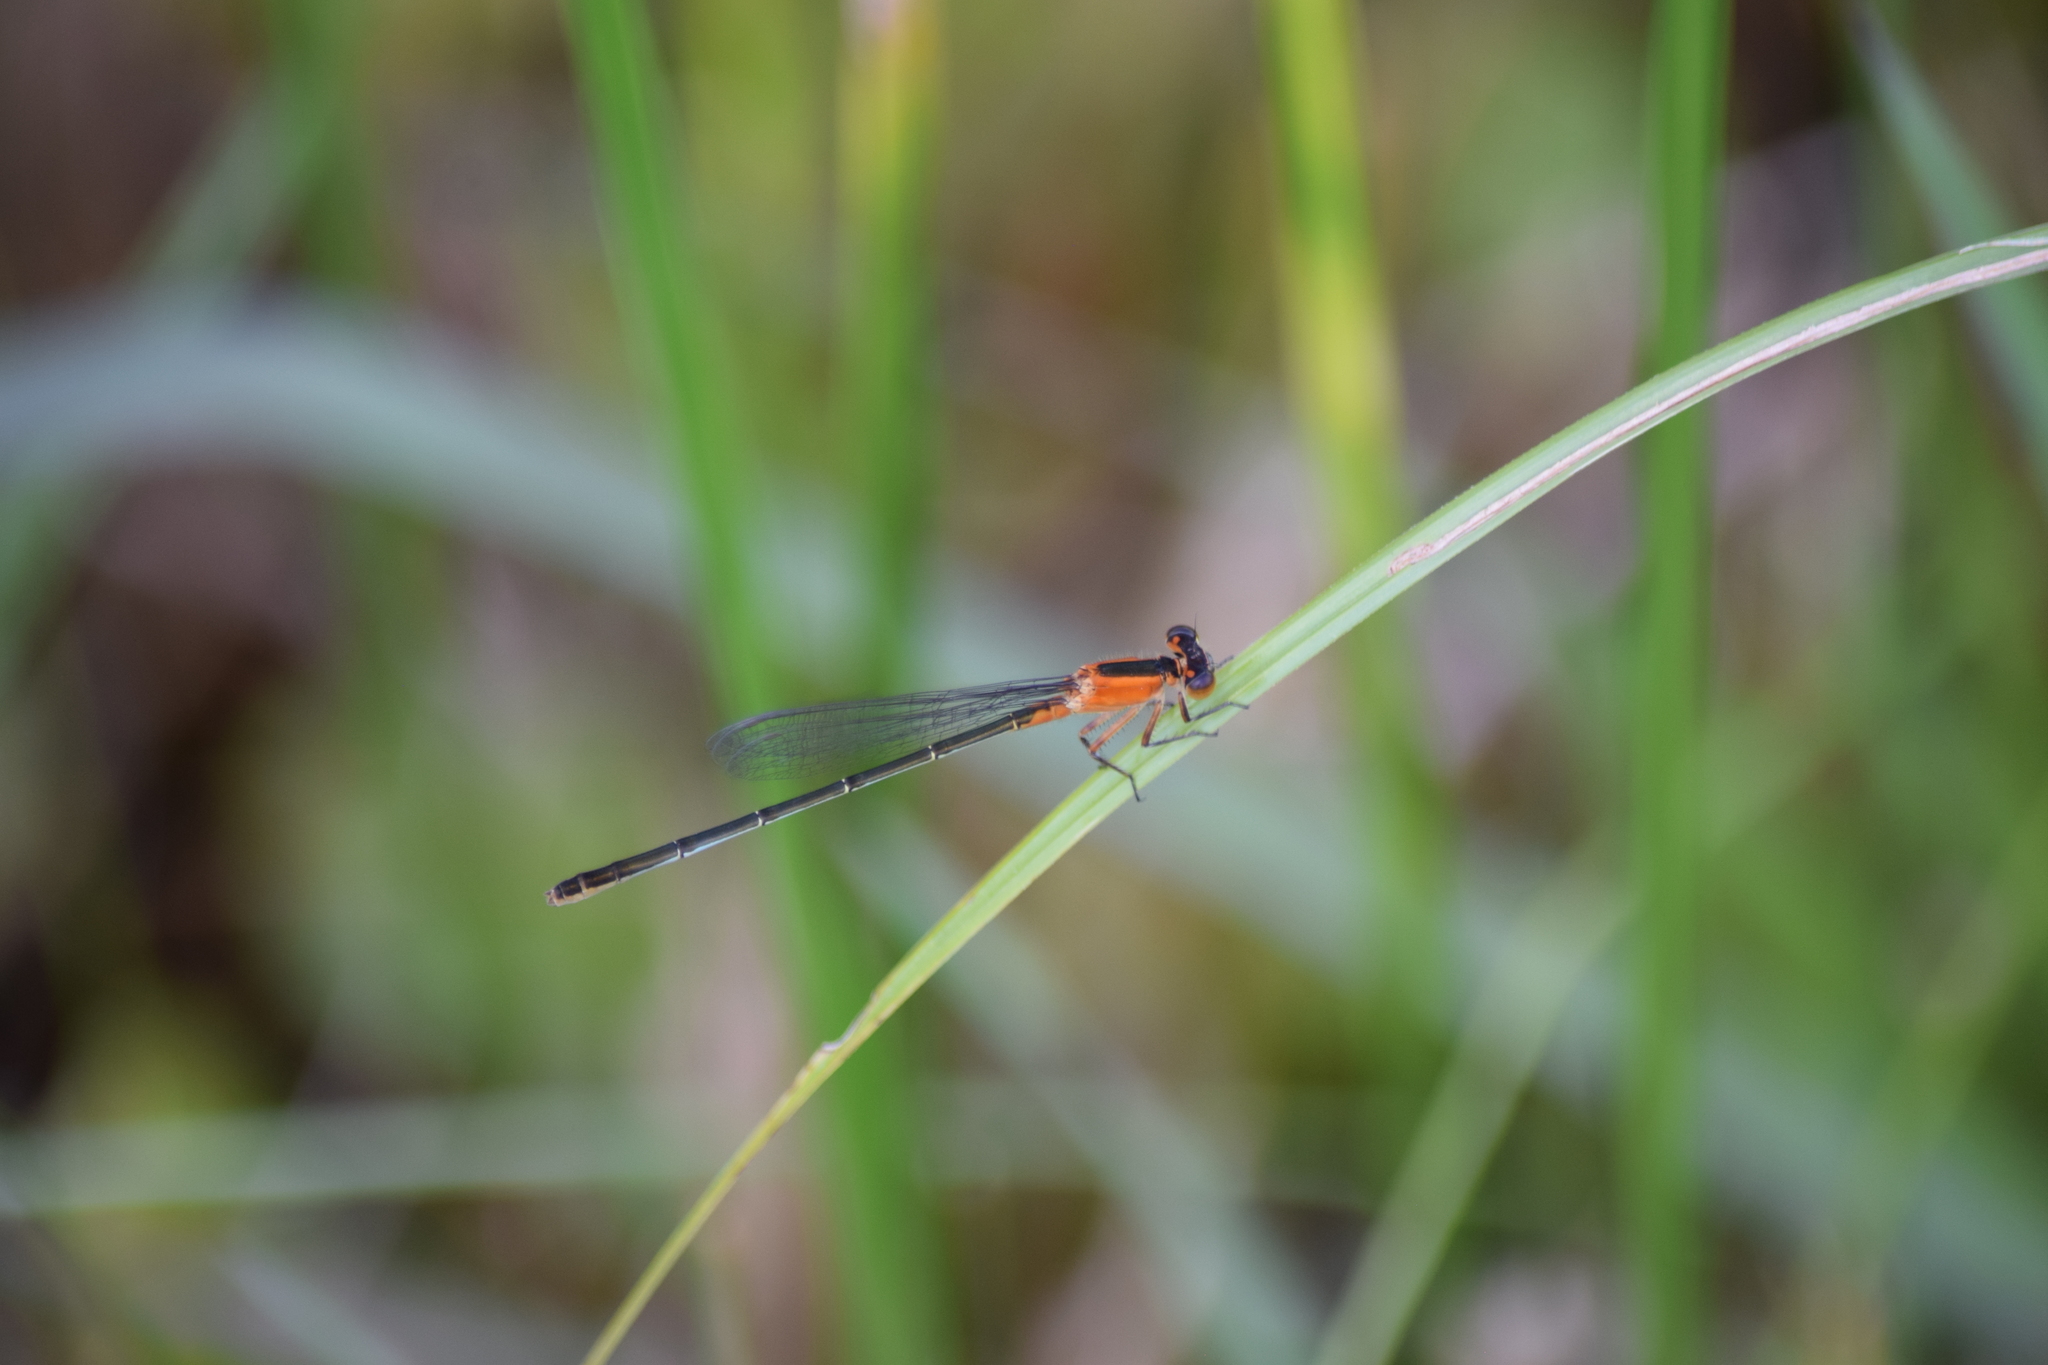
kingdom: Animalia
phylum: Arthropoda
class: Insecta
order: Odonata
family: Coenagrionidae
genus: Ischnura
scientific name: Ischnura ramburii
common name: Rambur's forktail
